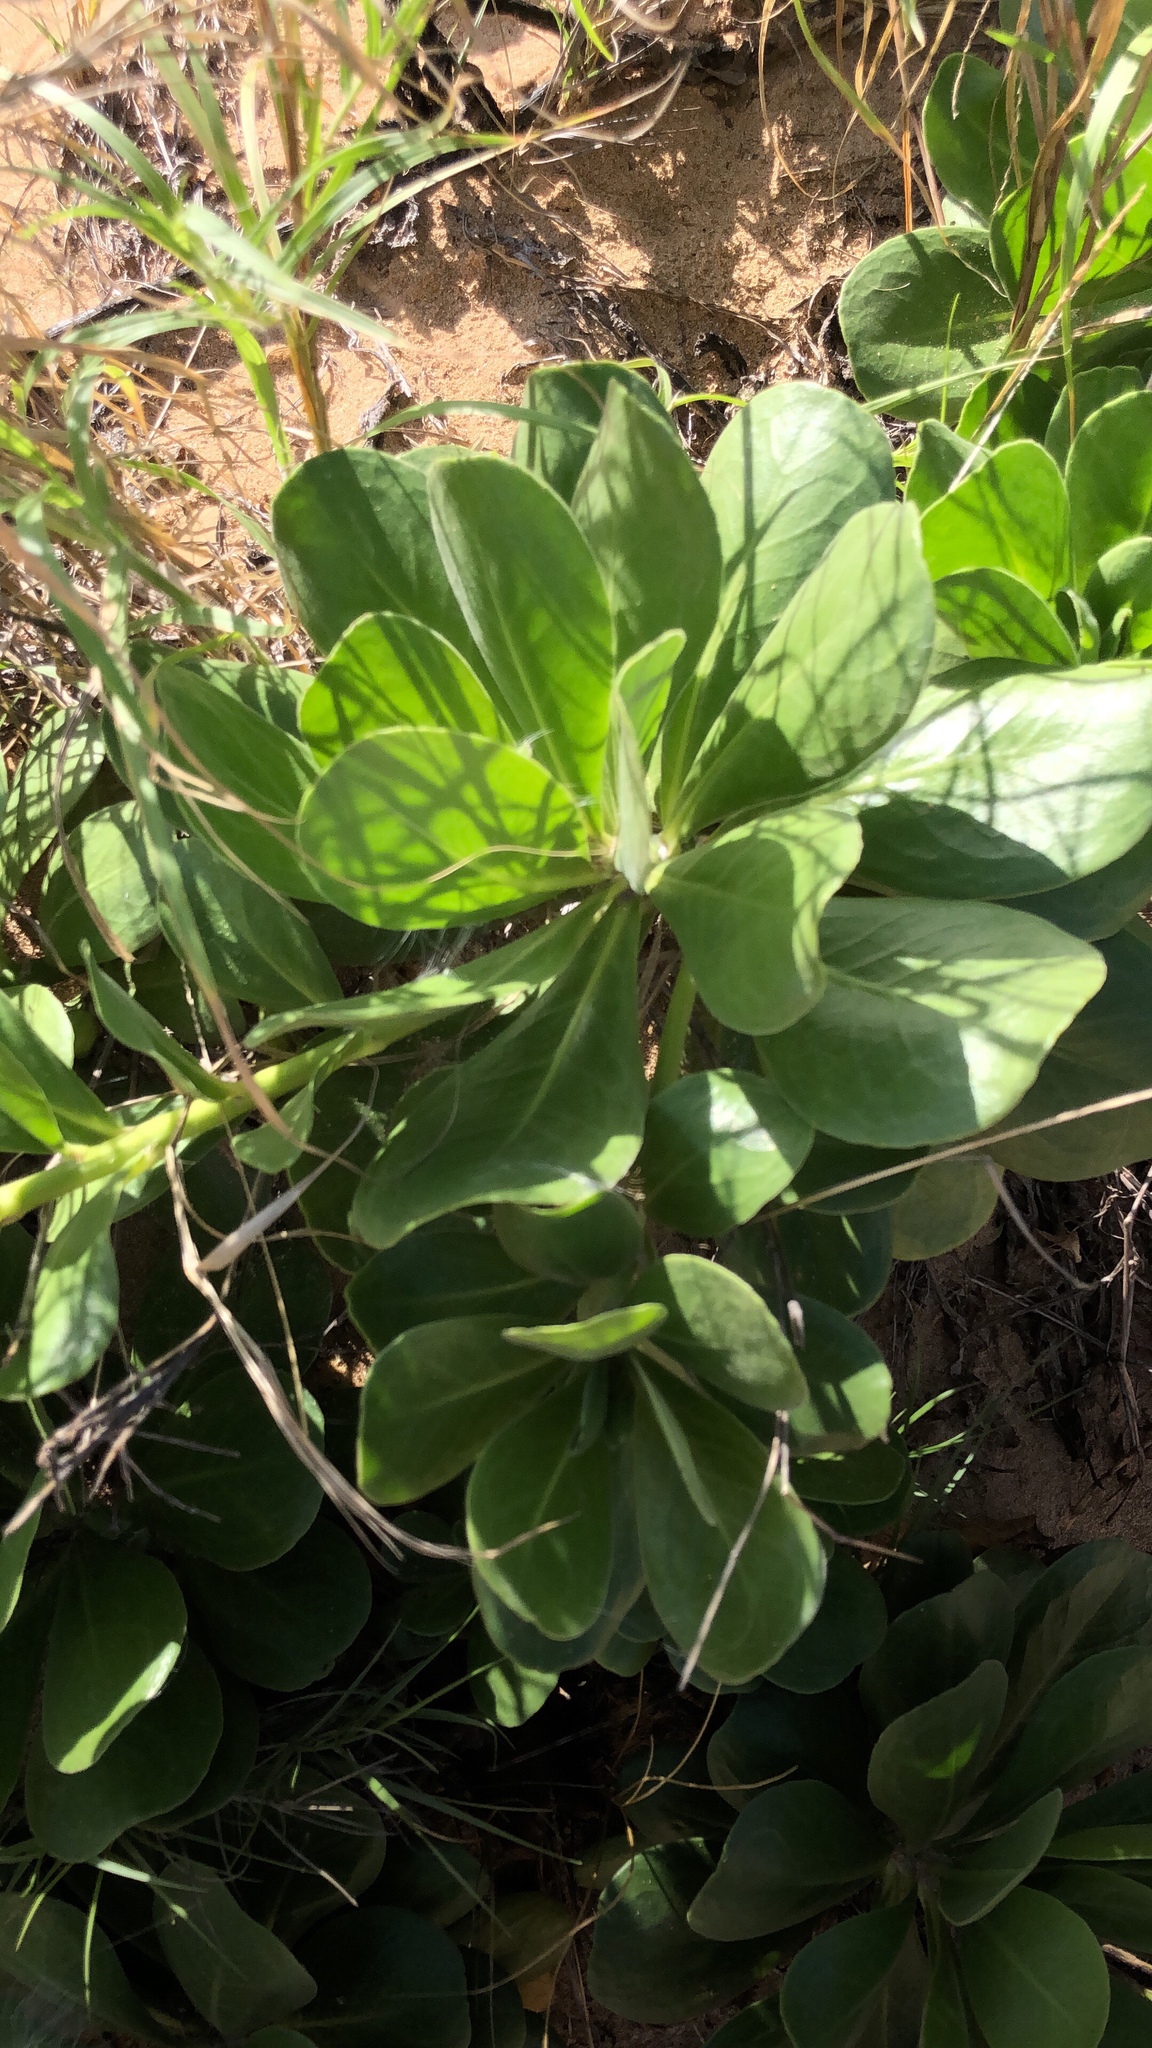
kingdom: Plantae
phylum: Tracheophyta
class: Magnoliopsida
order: Asterales
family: Goodeniaceae
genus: Scaevola
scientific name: Scaevola taccada
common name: Sea lettucetree
